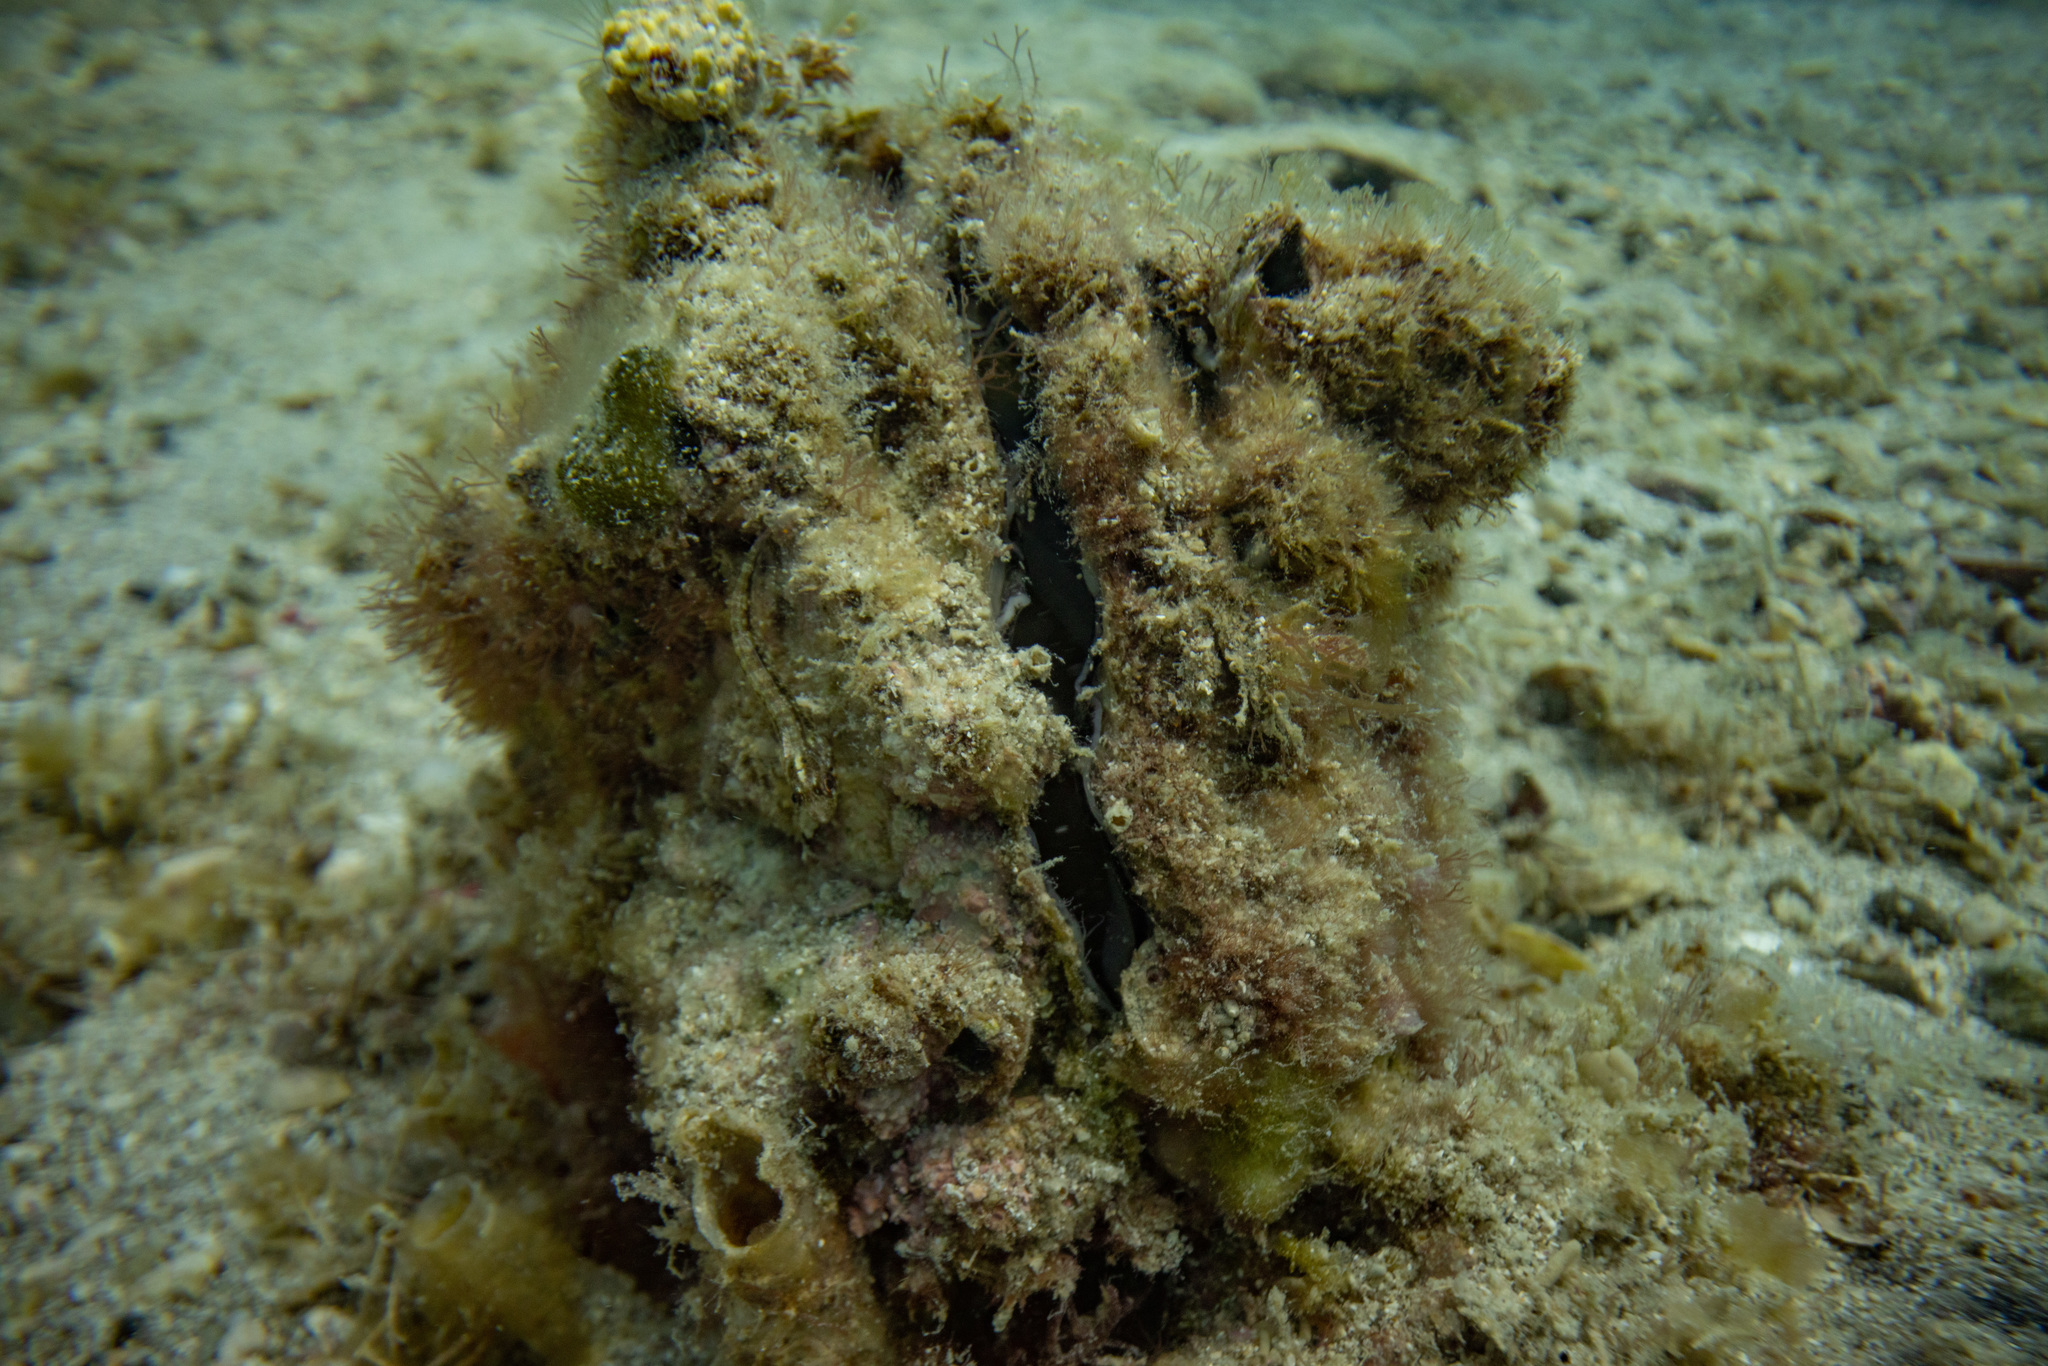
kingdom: Animalia
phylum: Mollusca
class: Bivalvia
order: Ostreida
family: Pinnidae
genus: Atrina
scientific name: Atrina zelandica
